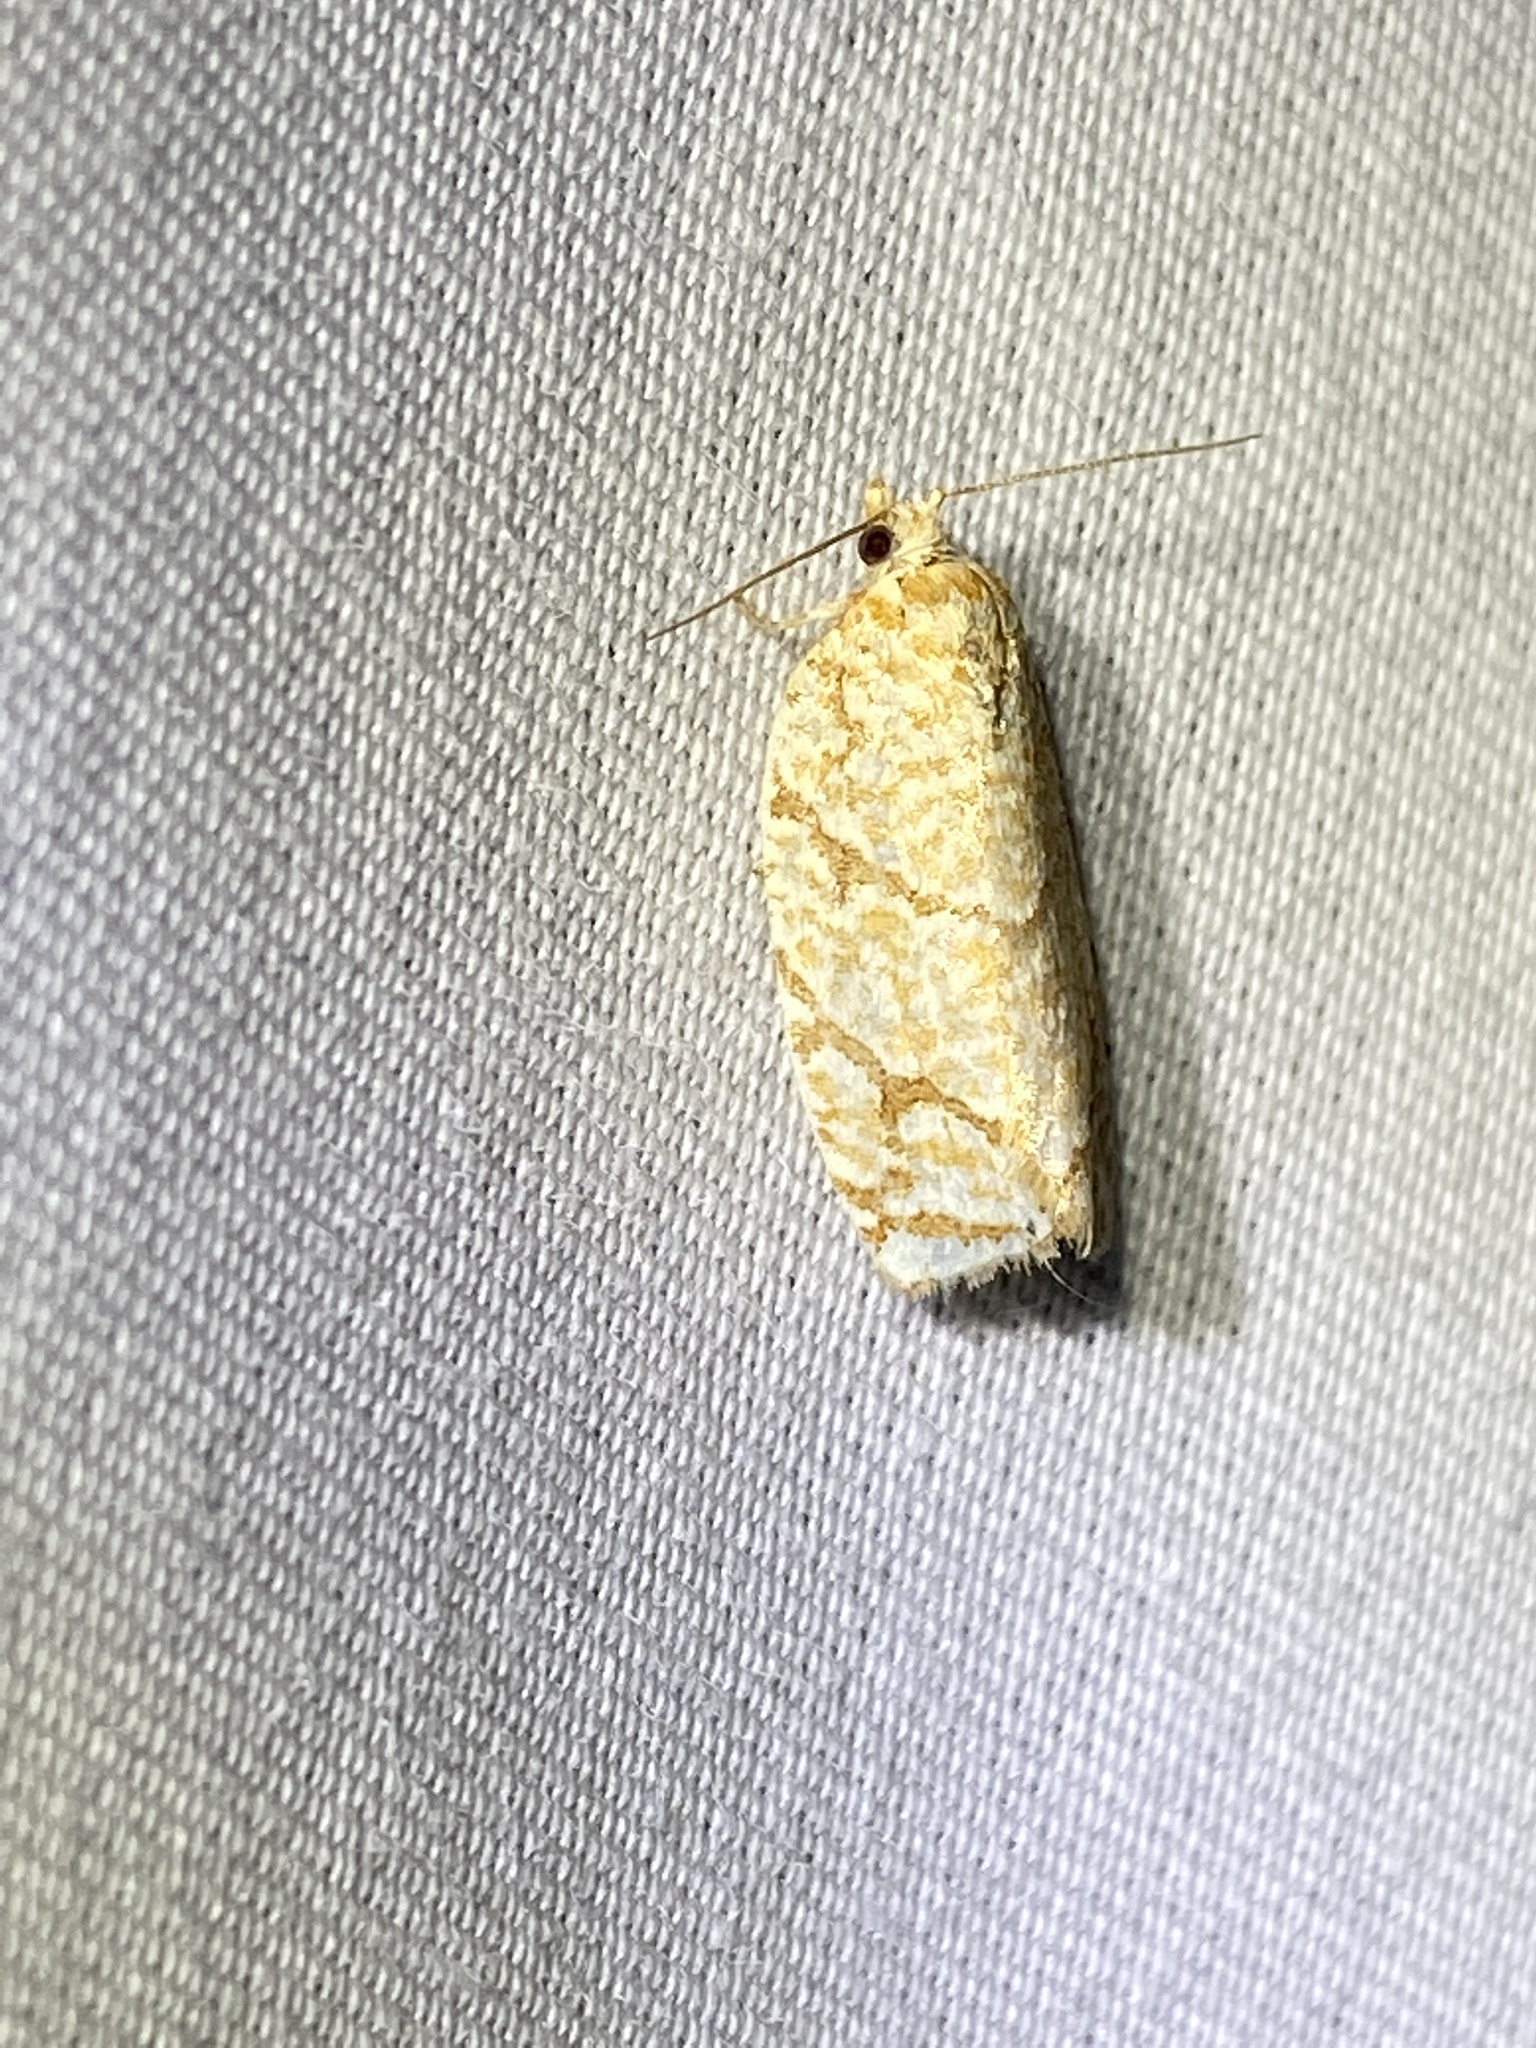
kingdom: Animalia
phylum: Arthropoda
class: Insecta
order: Lepidoptera
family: Tortricidae
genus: Argyrotaenia
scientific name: Argyrotaenia quercifoliana
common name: Yellow-winged oak leafroller moth
